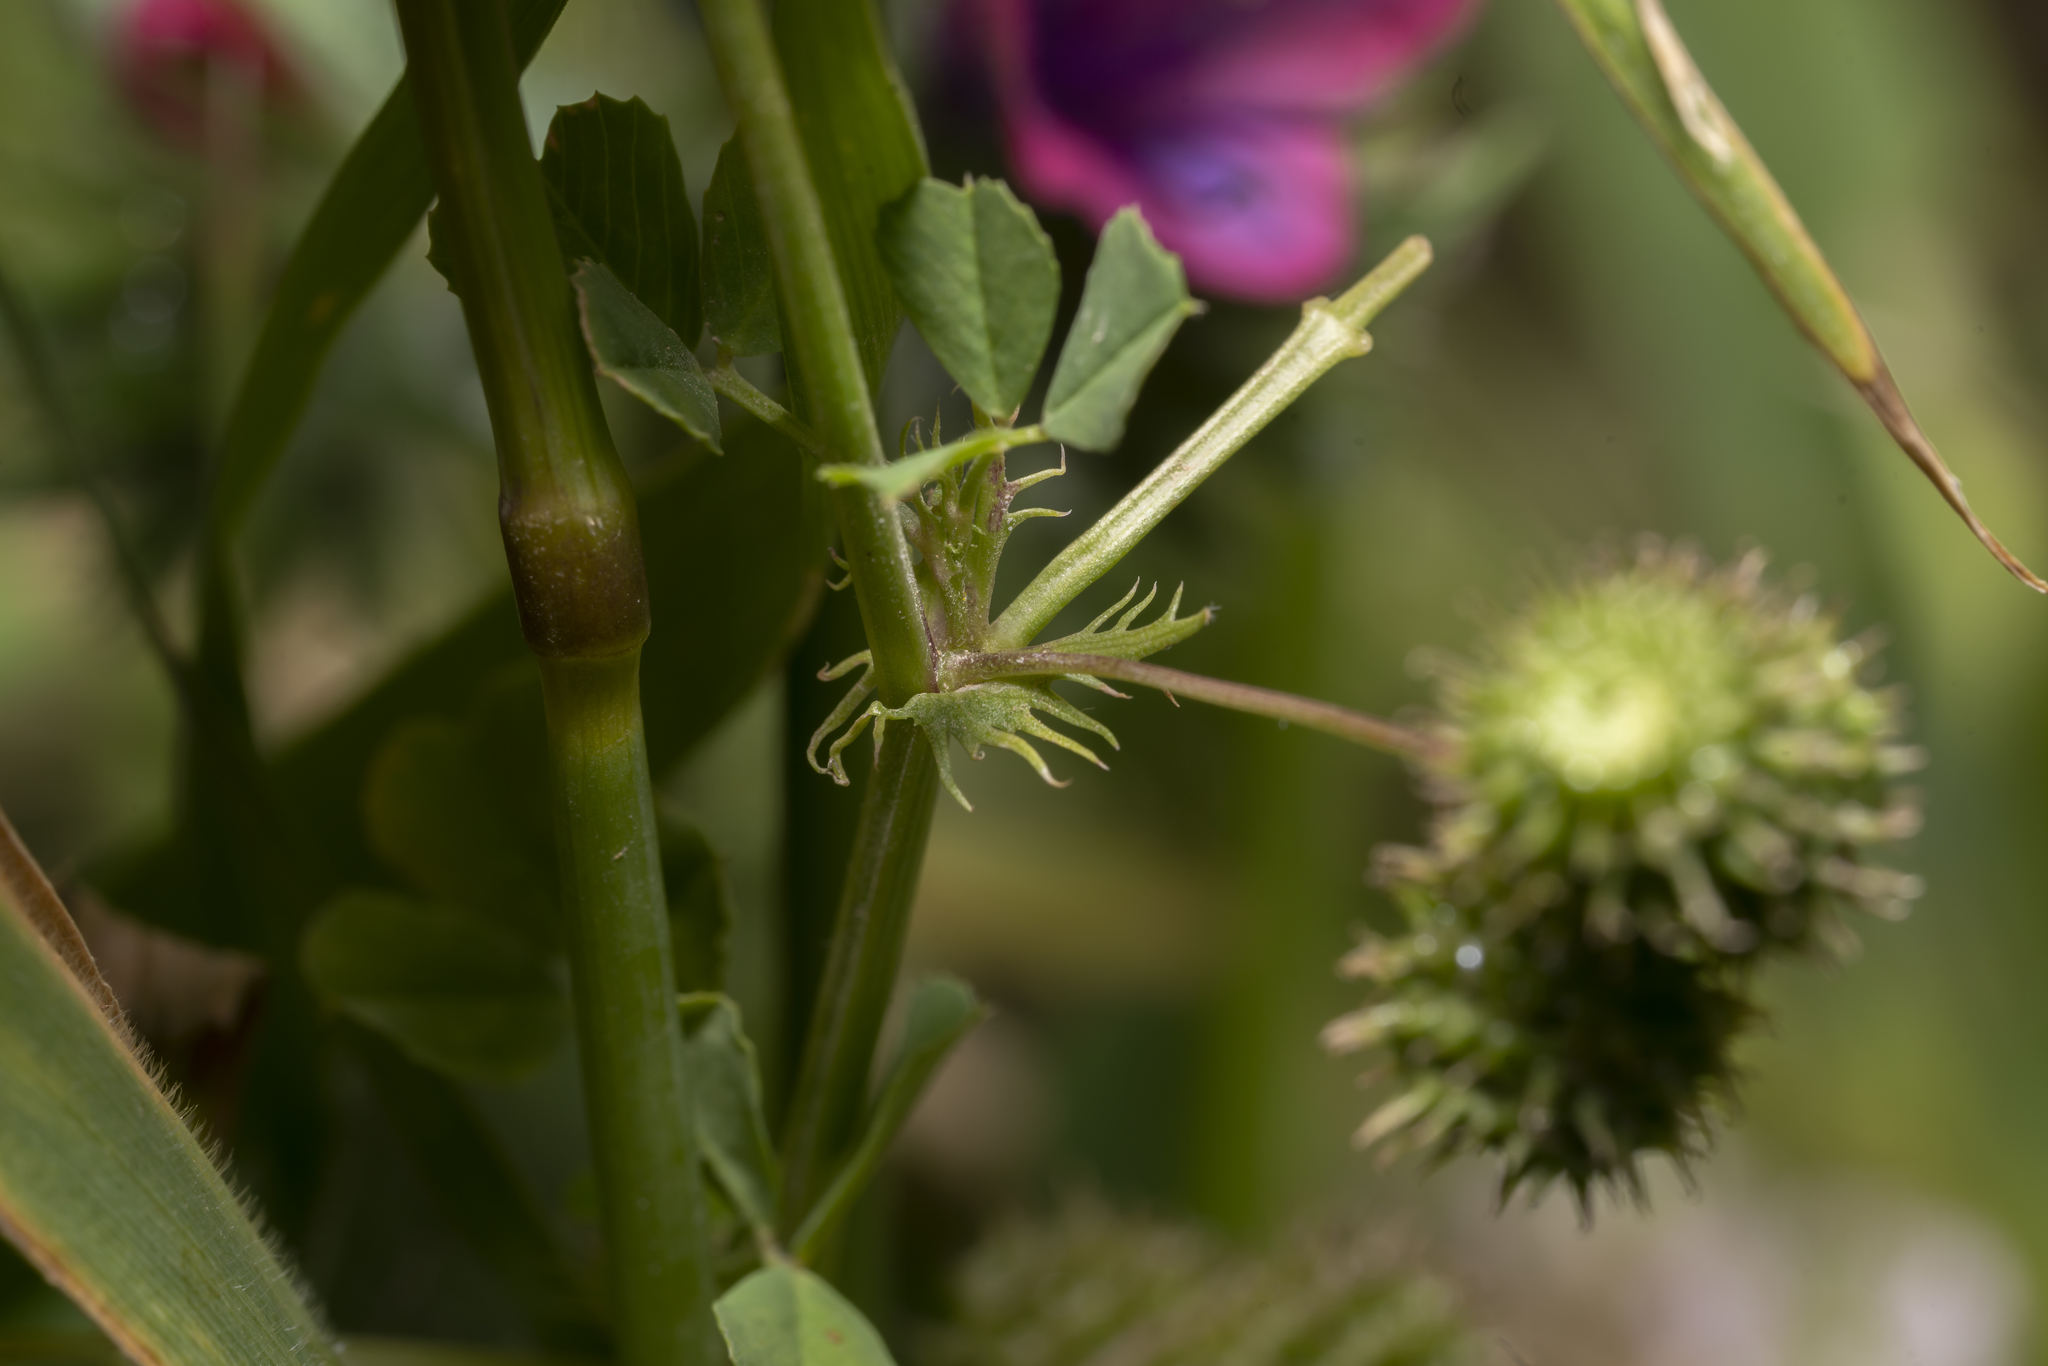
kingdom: Plantae
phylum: Tracheophyta
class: Magnoliopsida
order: Fabales
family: Fabaceae
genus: Medicago
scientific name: Medicago polymorpha
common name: Burclover
